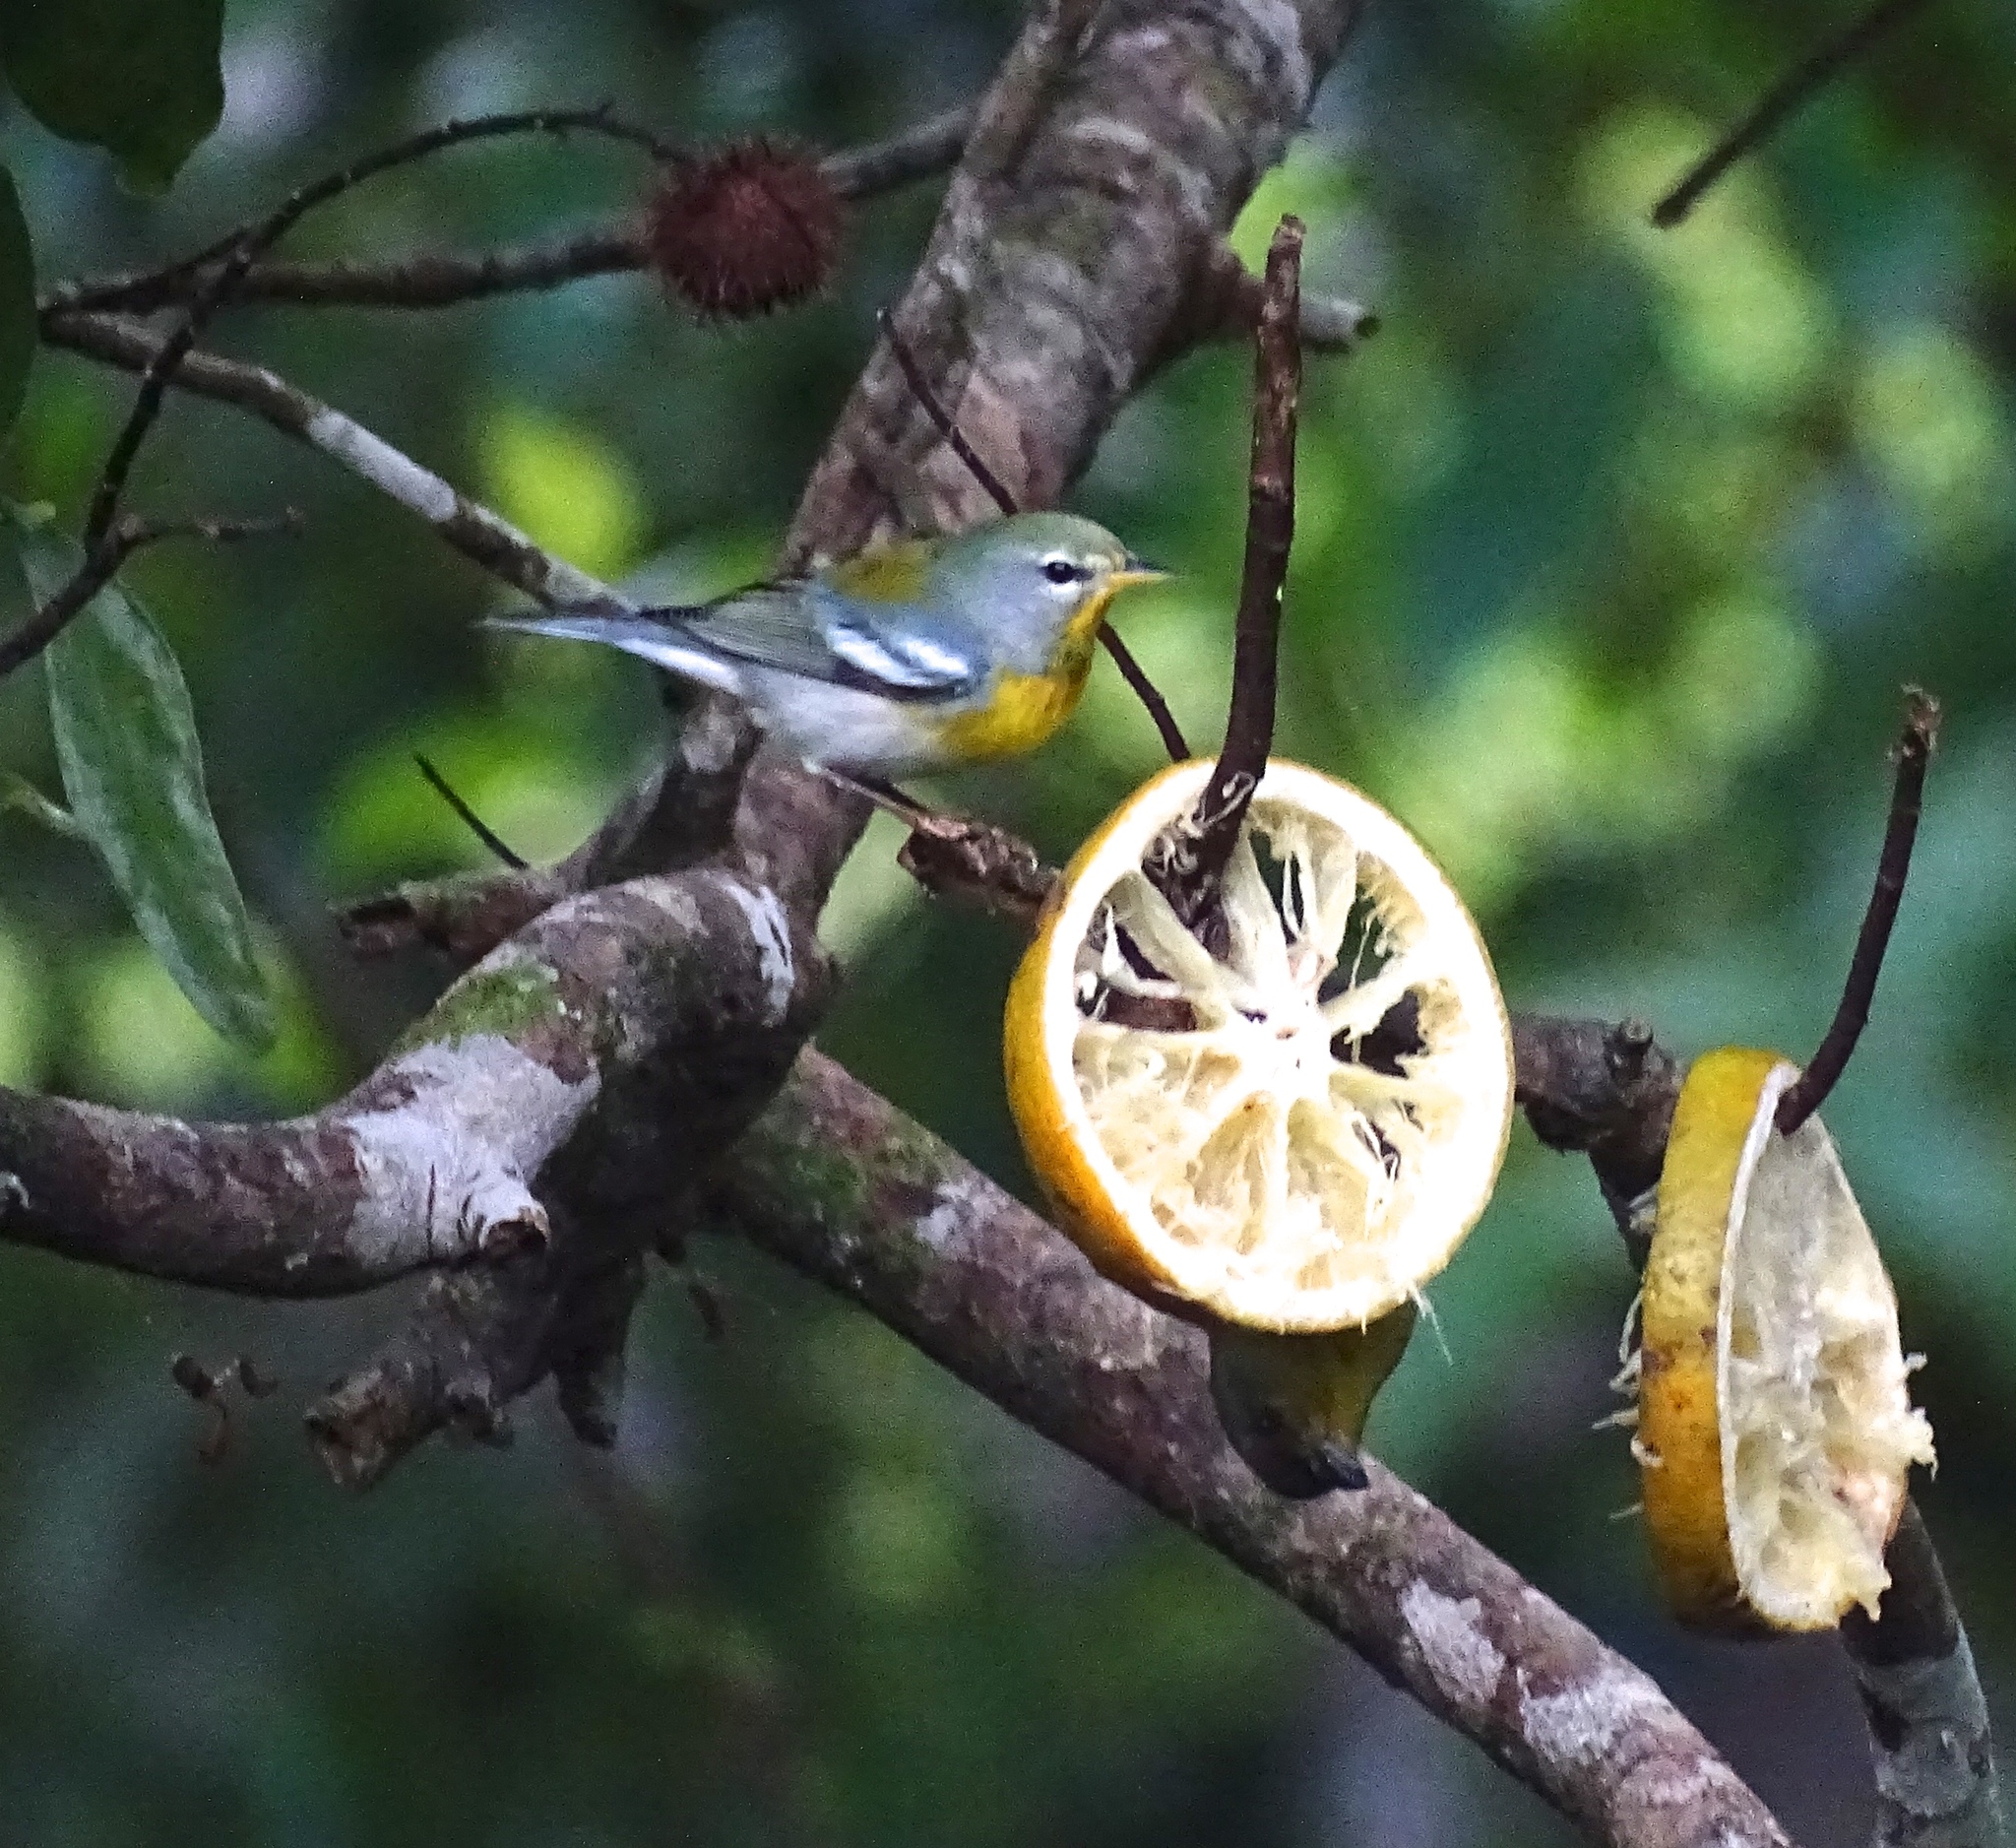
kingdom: Animalia
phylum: Chordata
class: Aves
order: Passeriformes
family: Parulidae
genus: Setophaga
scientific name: Setophaga americana
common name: Northern parula
